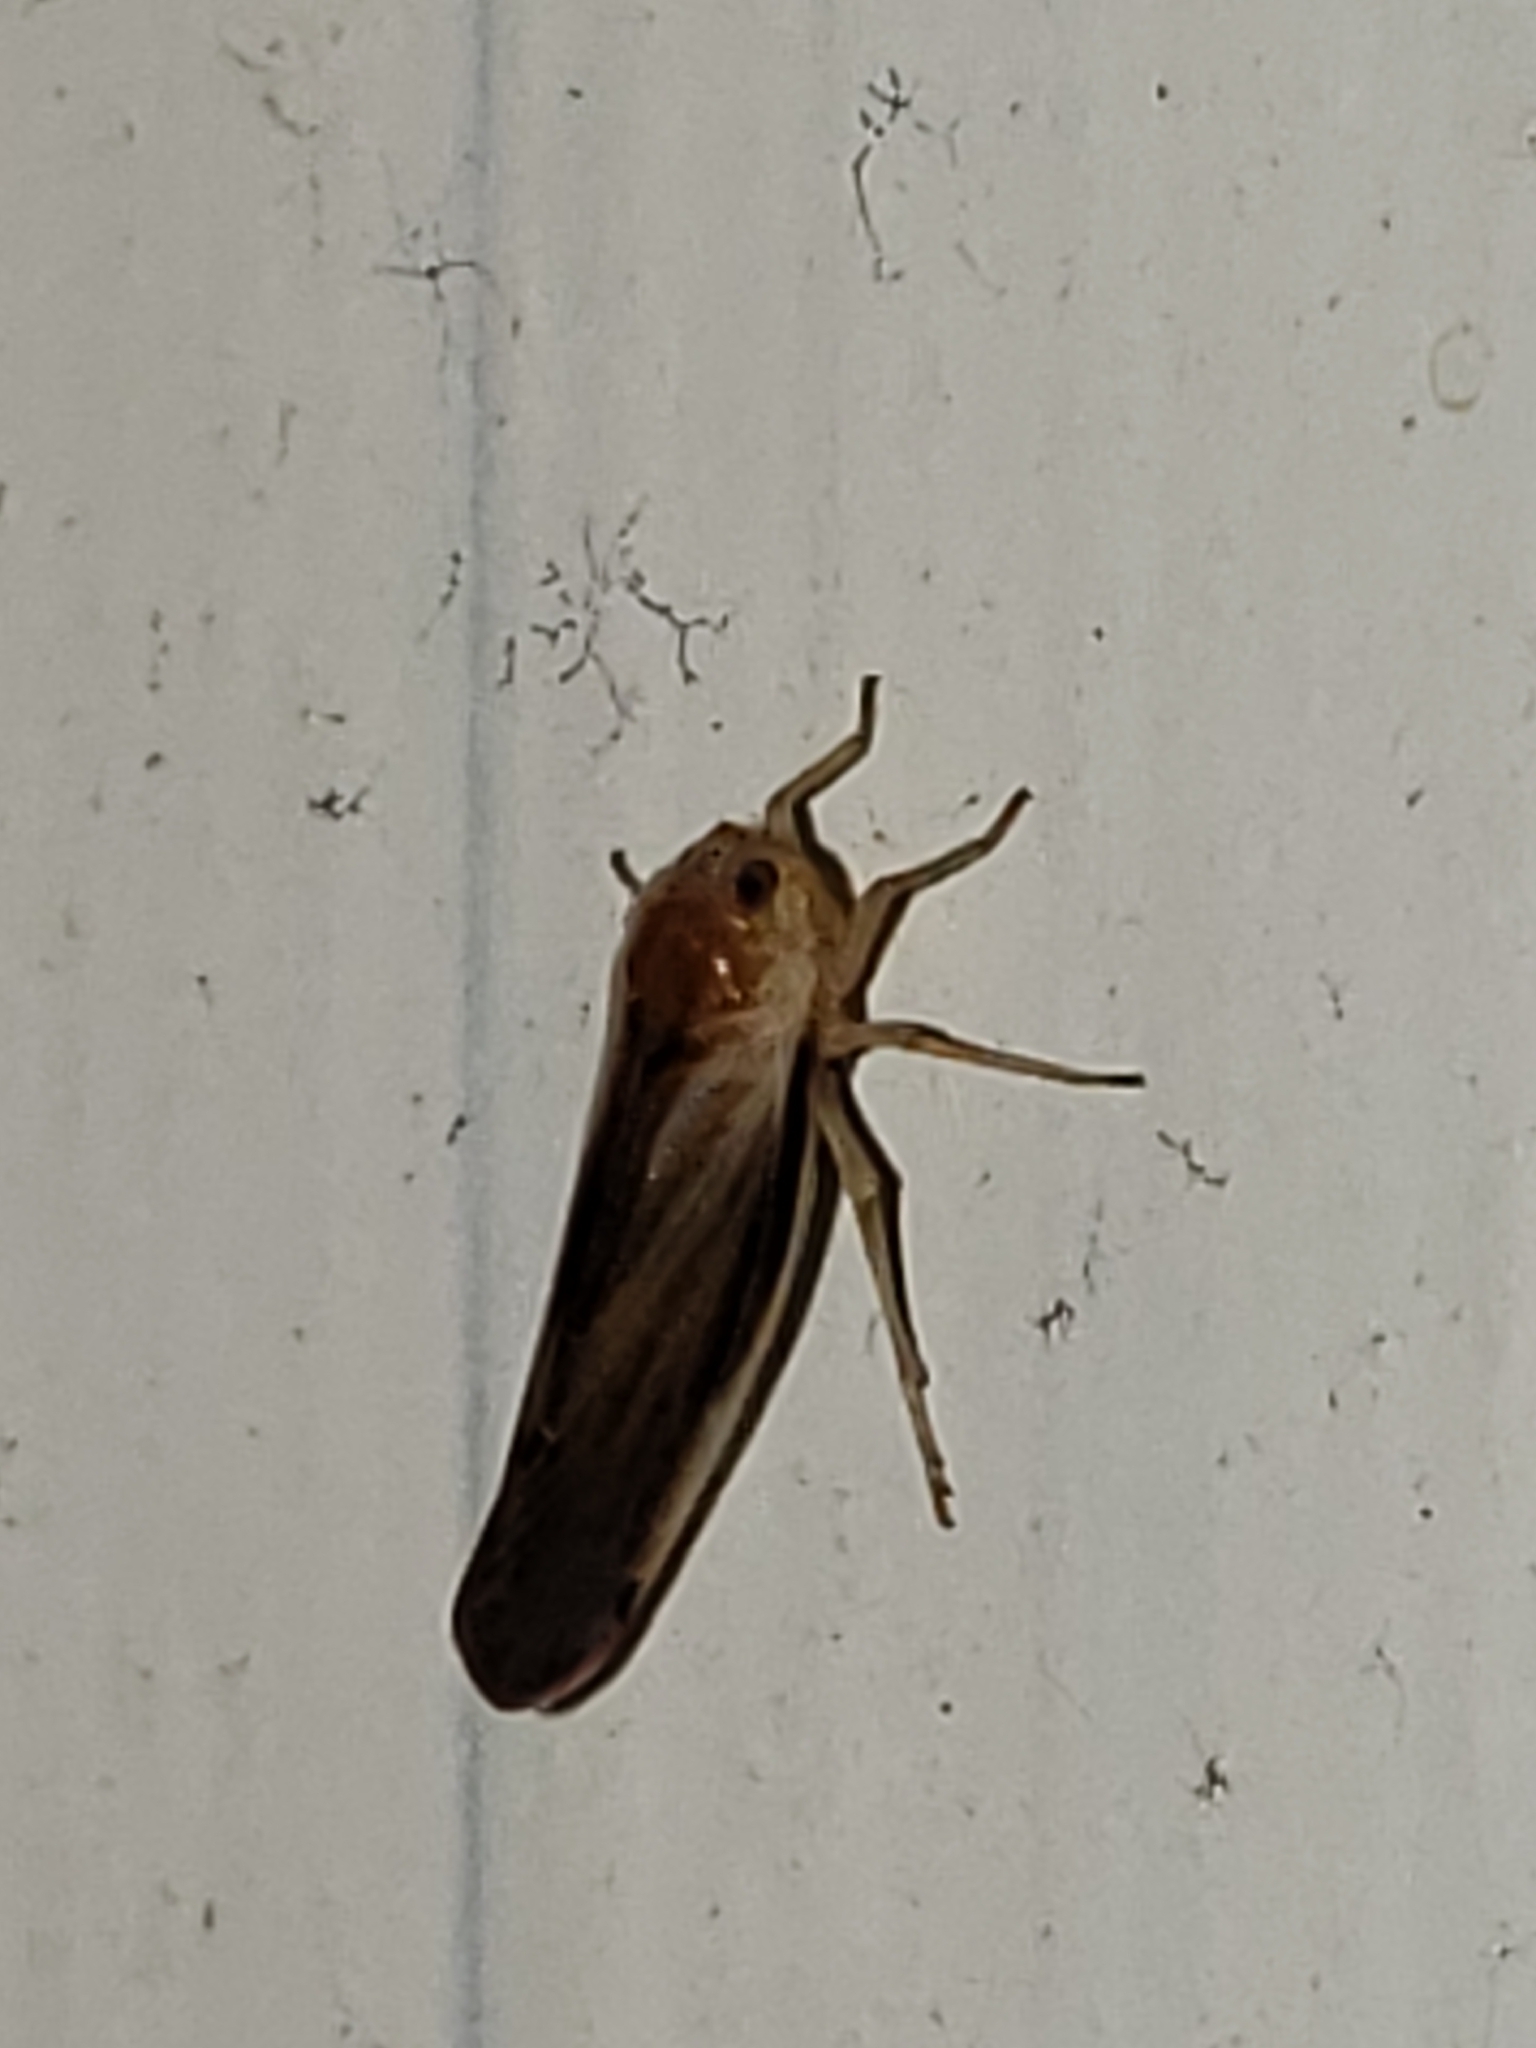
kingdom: Animalia
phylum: Arthropoda
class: Insecta
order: Hemiptera
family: Derbidae
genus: Omolicna
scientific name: Omolicna uhleri
